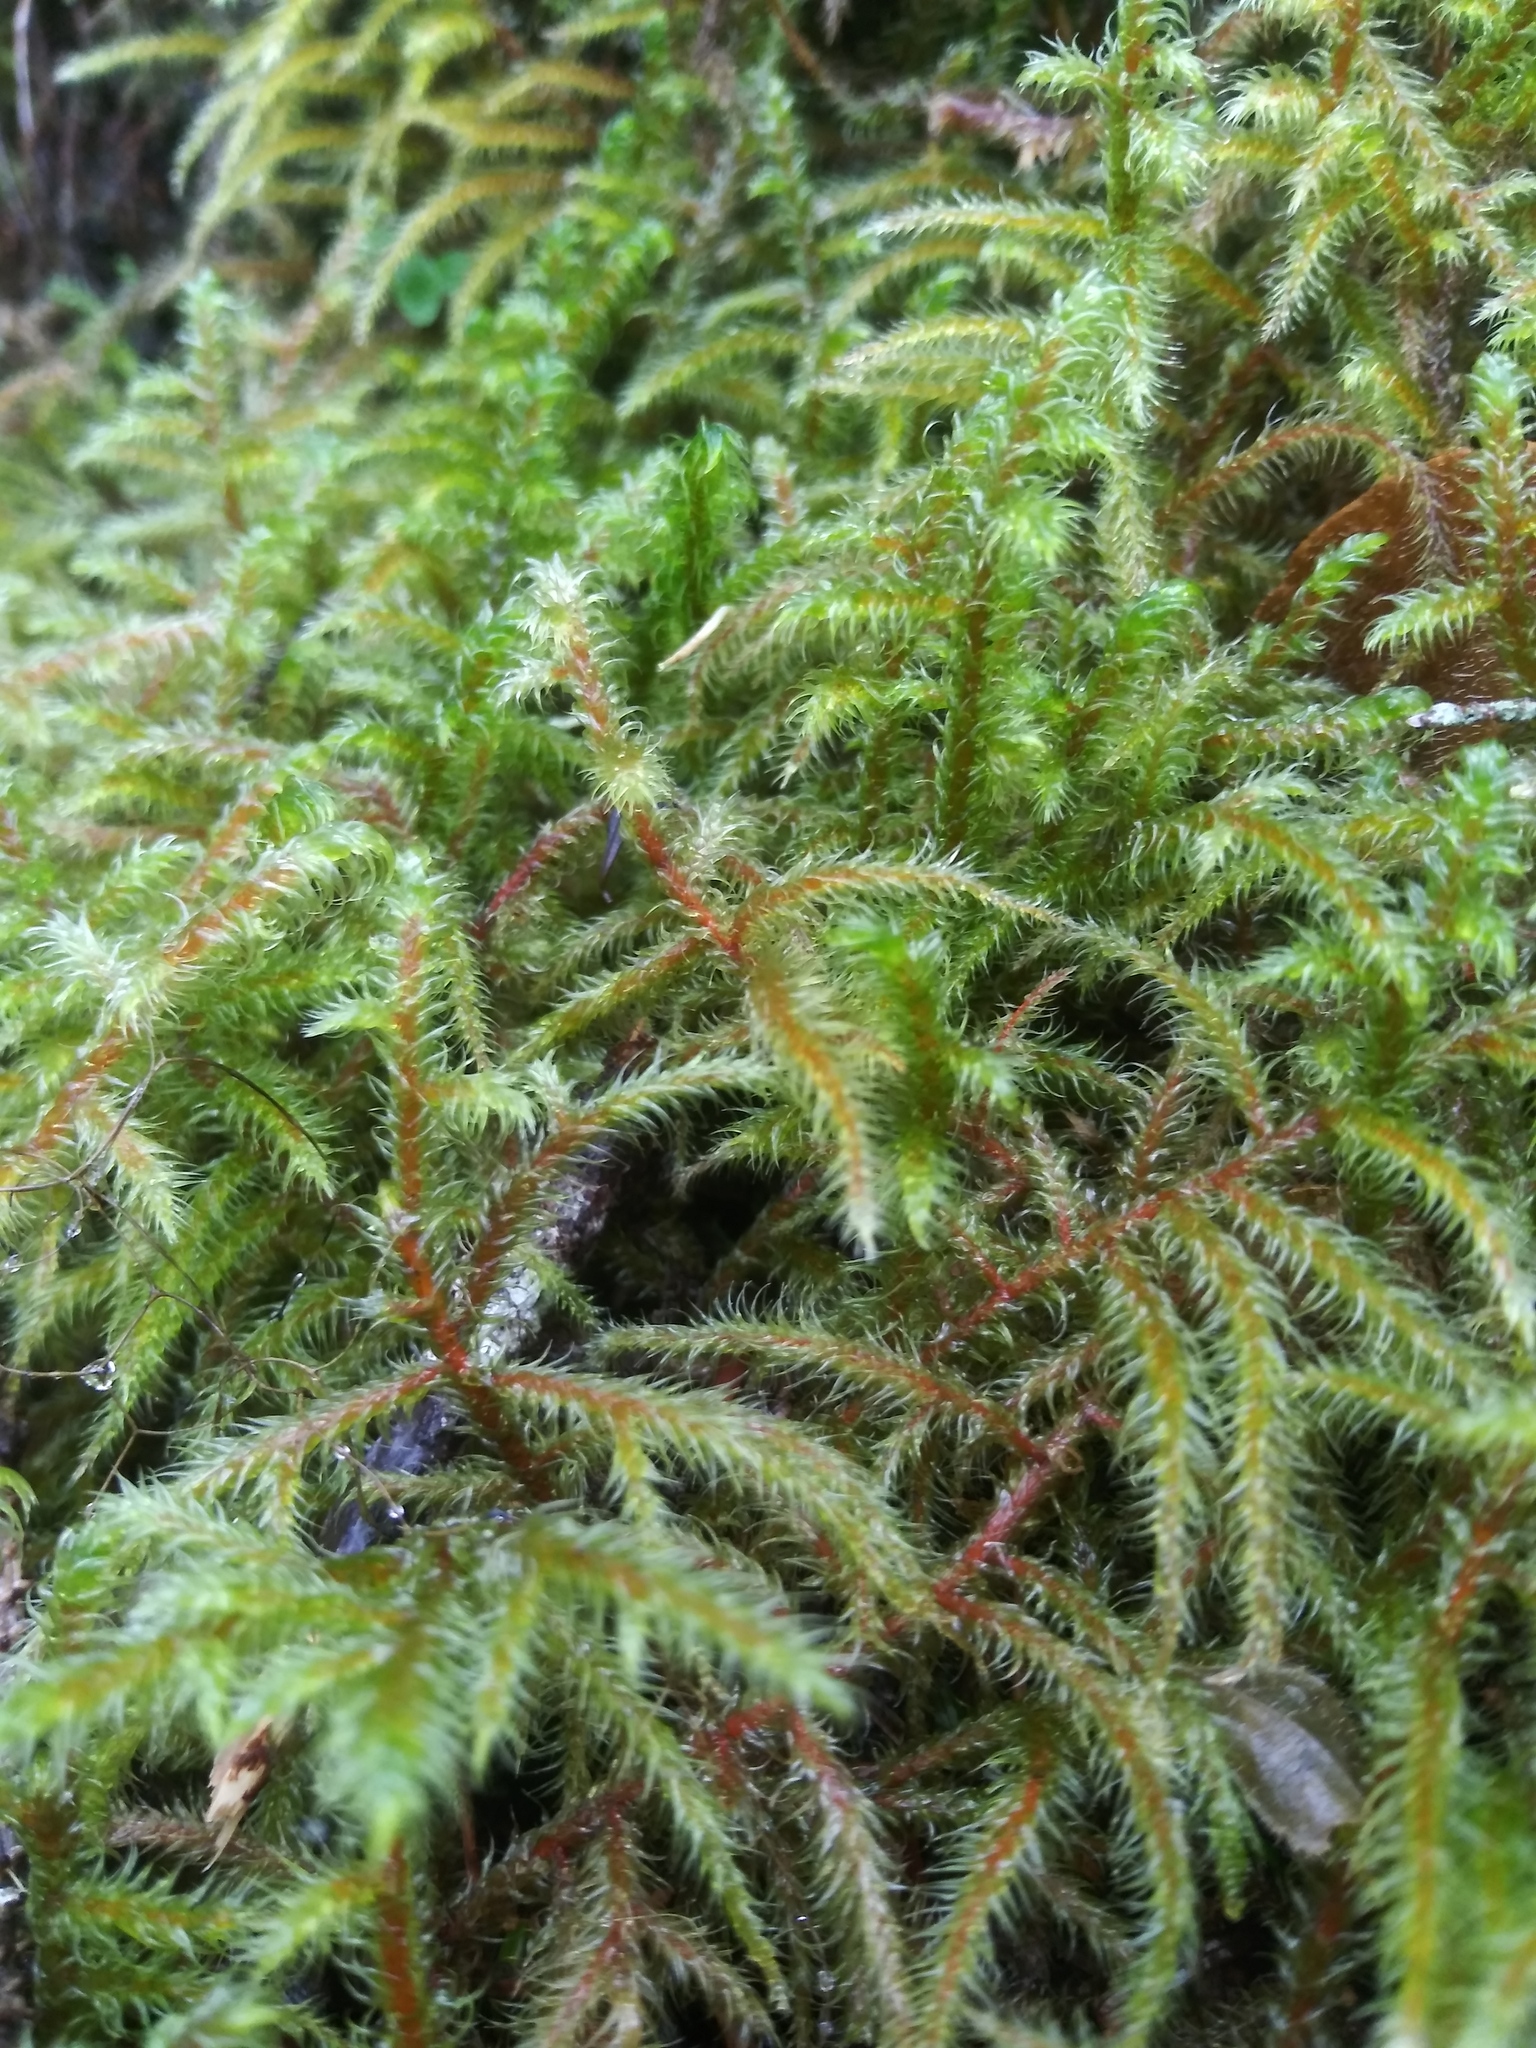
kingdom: Plantae
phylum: Bryophyta
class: Bryopsida
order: Hypnales
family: Hylocomiaceae
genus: Rhytidiadelphus
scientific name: Rhytidiadelphus loreus
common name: Lanky moss
